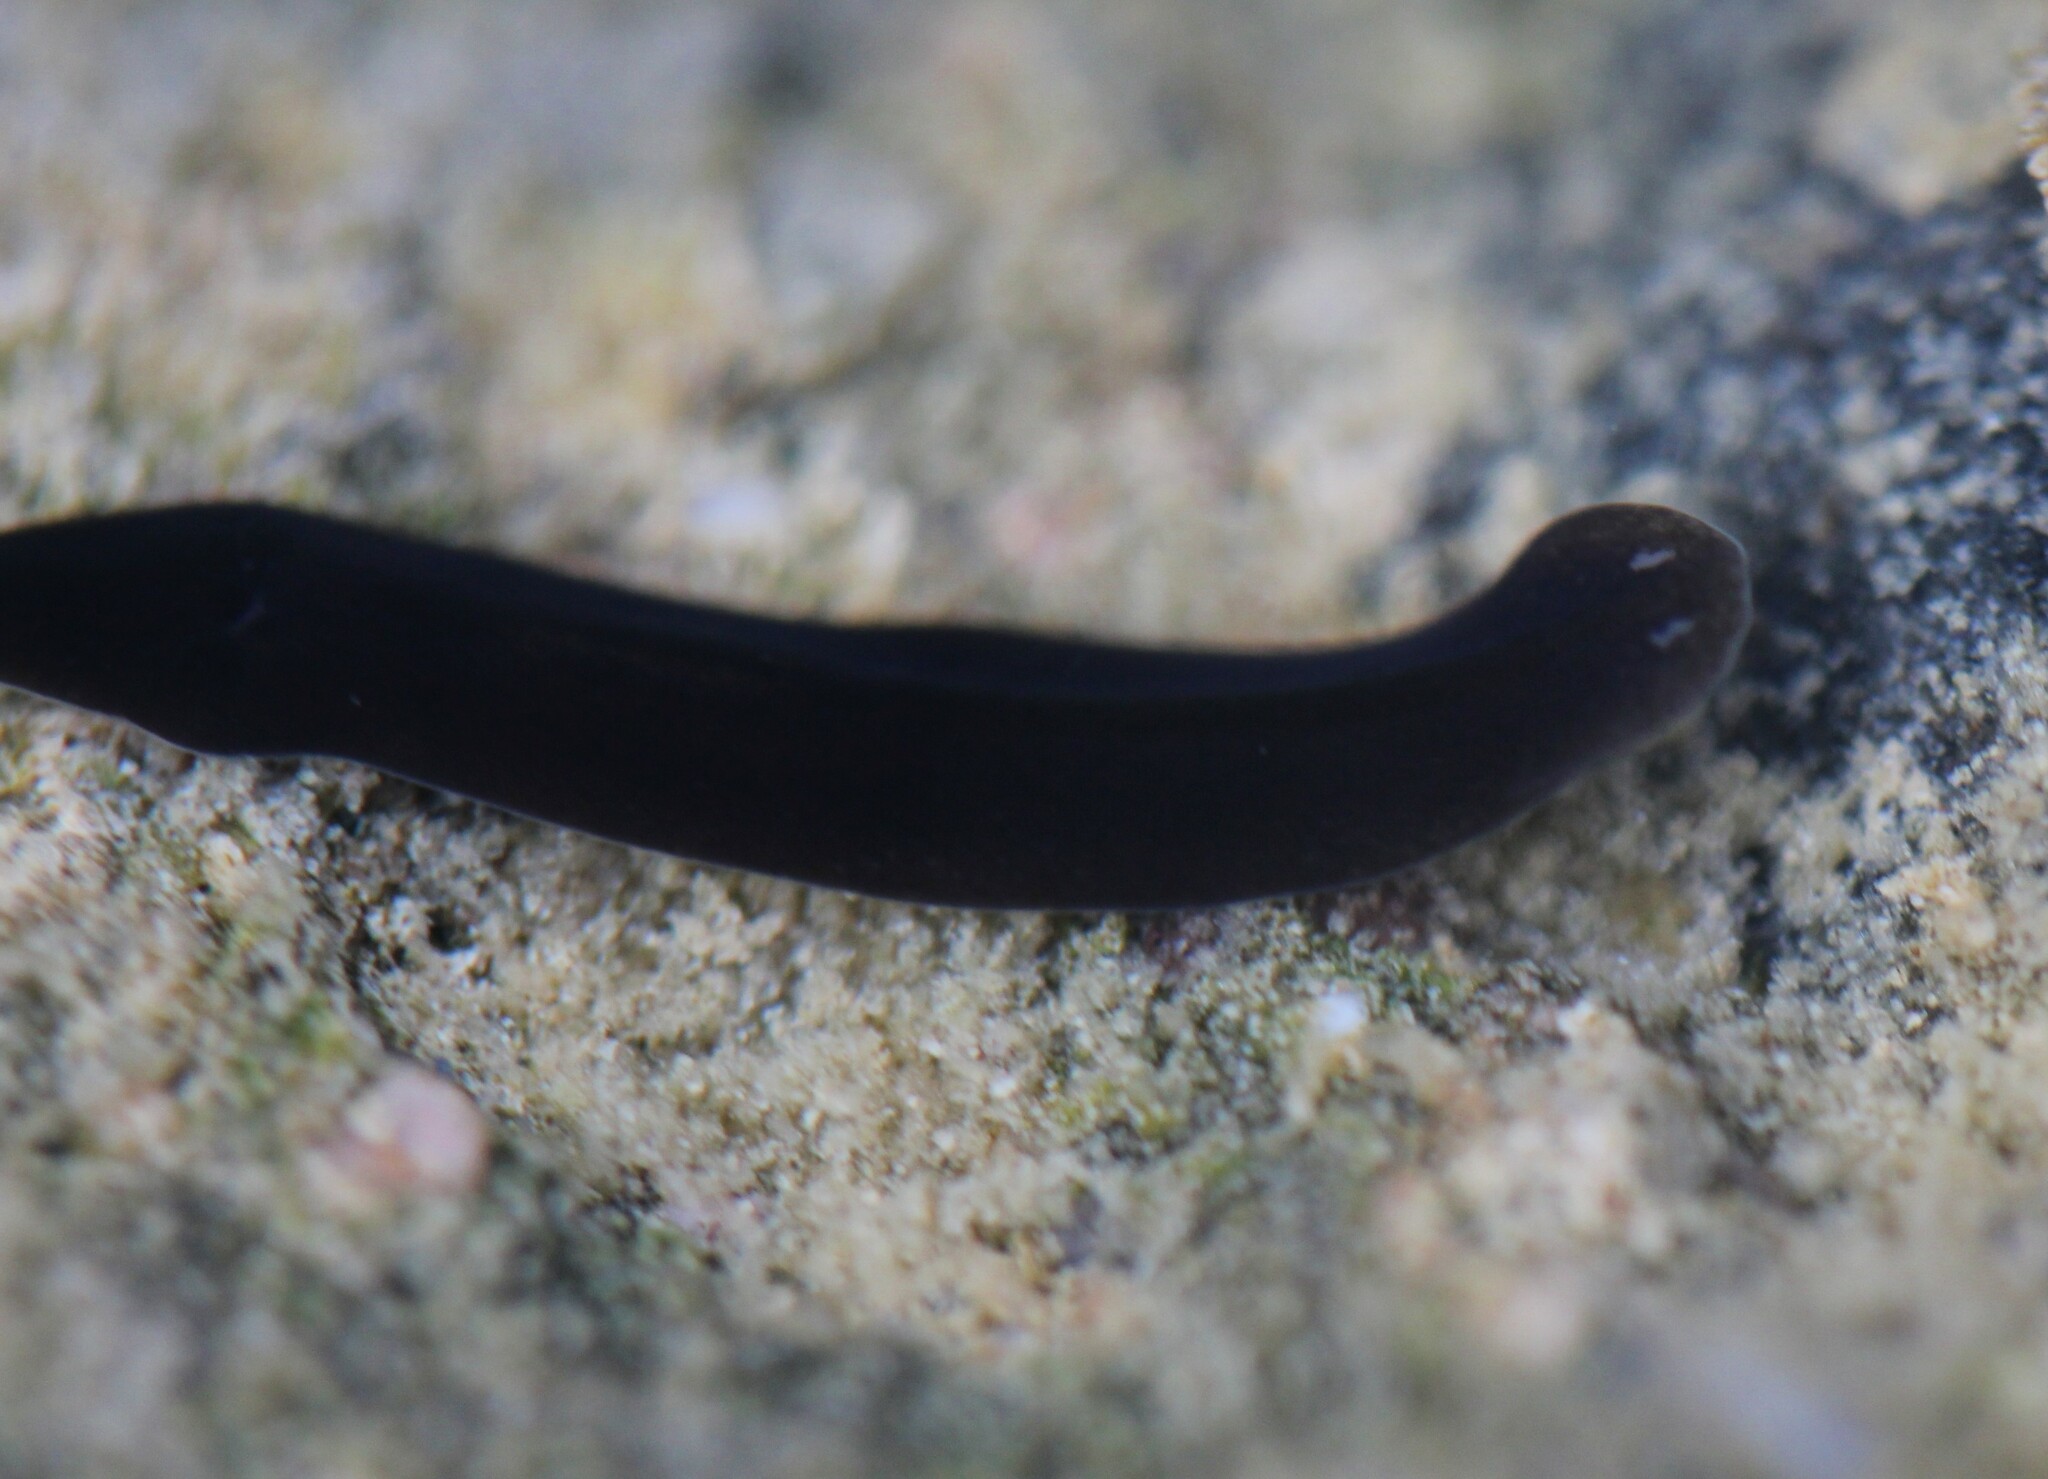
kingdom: Animalia
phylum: Platyhelminthes
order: Tricladida
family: Dugesiidae
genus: Schmidtea
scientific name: Schmidtea
